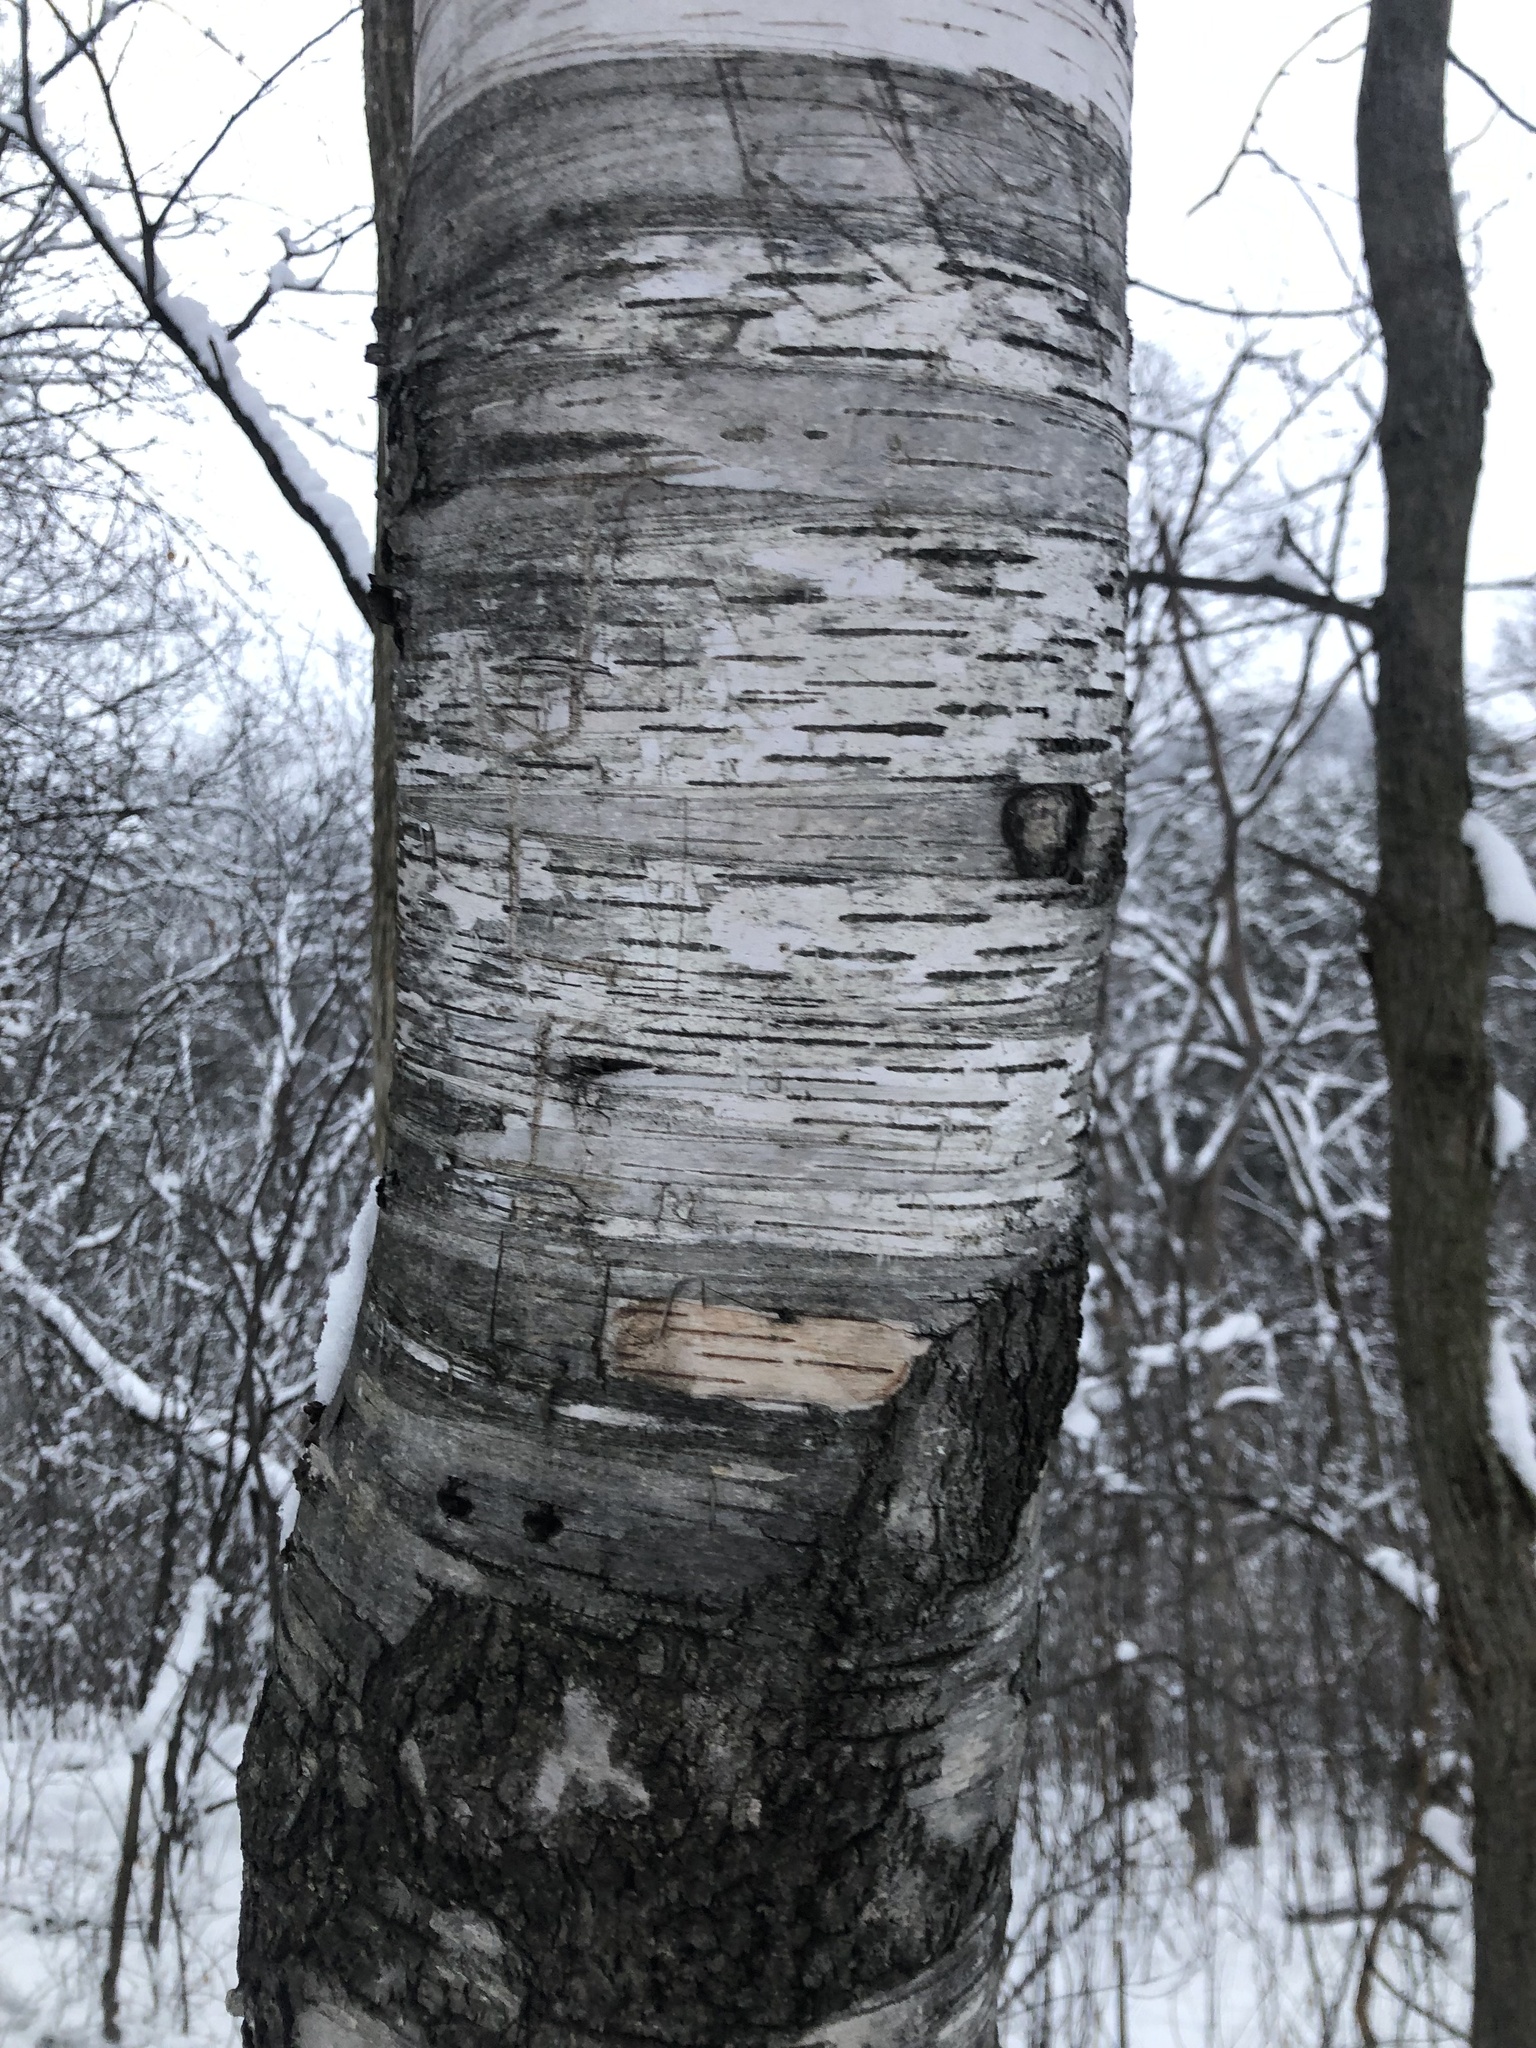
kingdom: Plantae
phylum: Tracheophyta
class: Magnoliopsida
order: Fagales
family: Betulaceae
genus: Betula
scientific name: Betula papyrifera
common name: Paper birch
